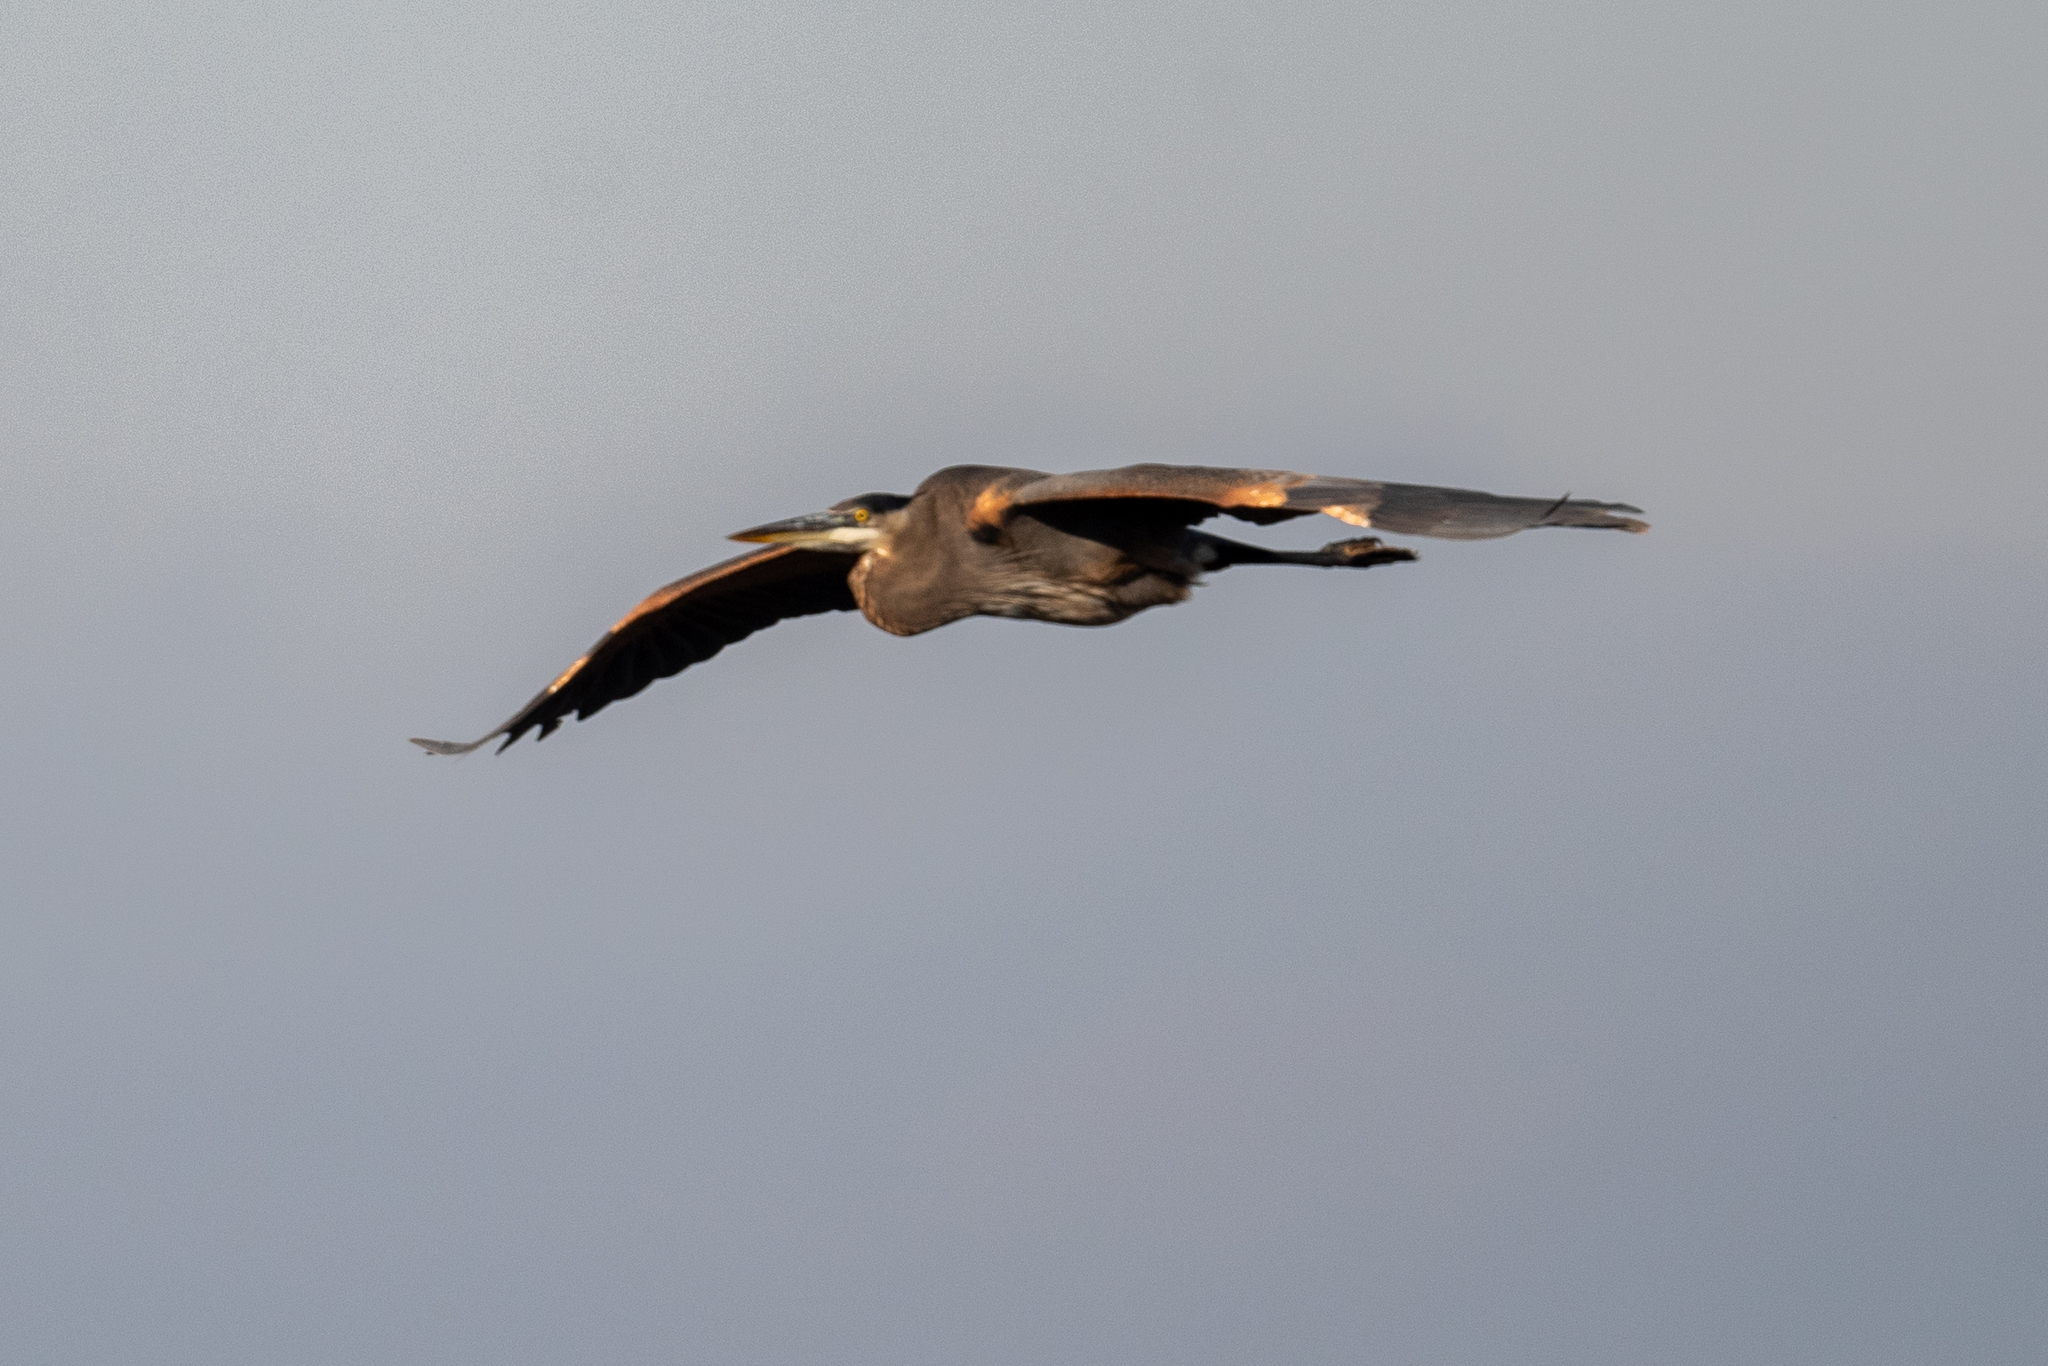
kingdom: Animalia
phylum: Chordata
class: Aves
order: Pelecaniformes
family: Ardeidae
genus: Ardea
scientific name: Ardea herodias
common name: Great blue heron
